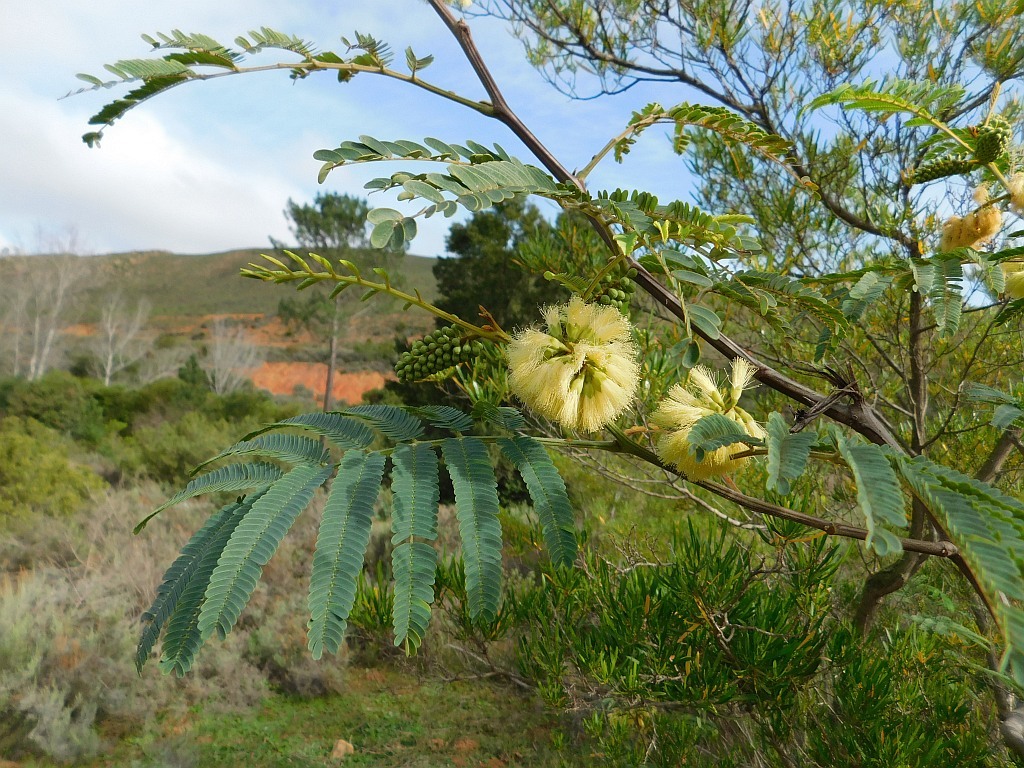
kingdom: Plantae
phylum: Tracheophyta
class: Magnoliopsida
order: Fabales
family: Fabaceae
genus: Paraserianthes
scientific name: Paraserianthes lophantha
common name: Plume albizia
